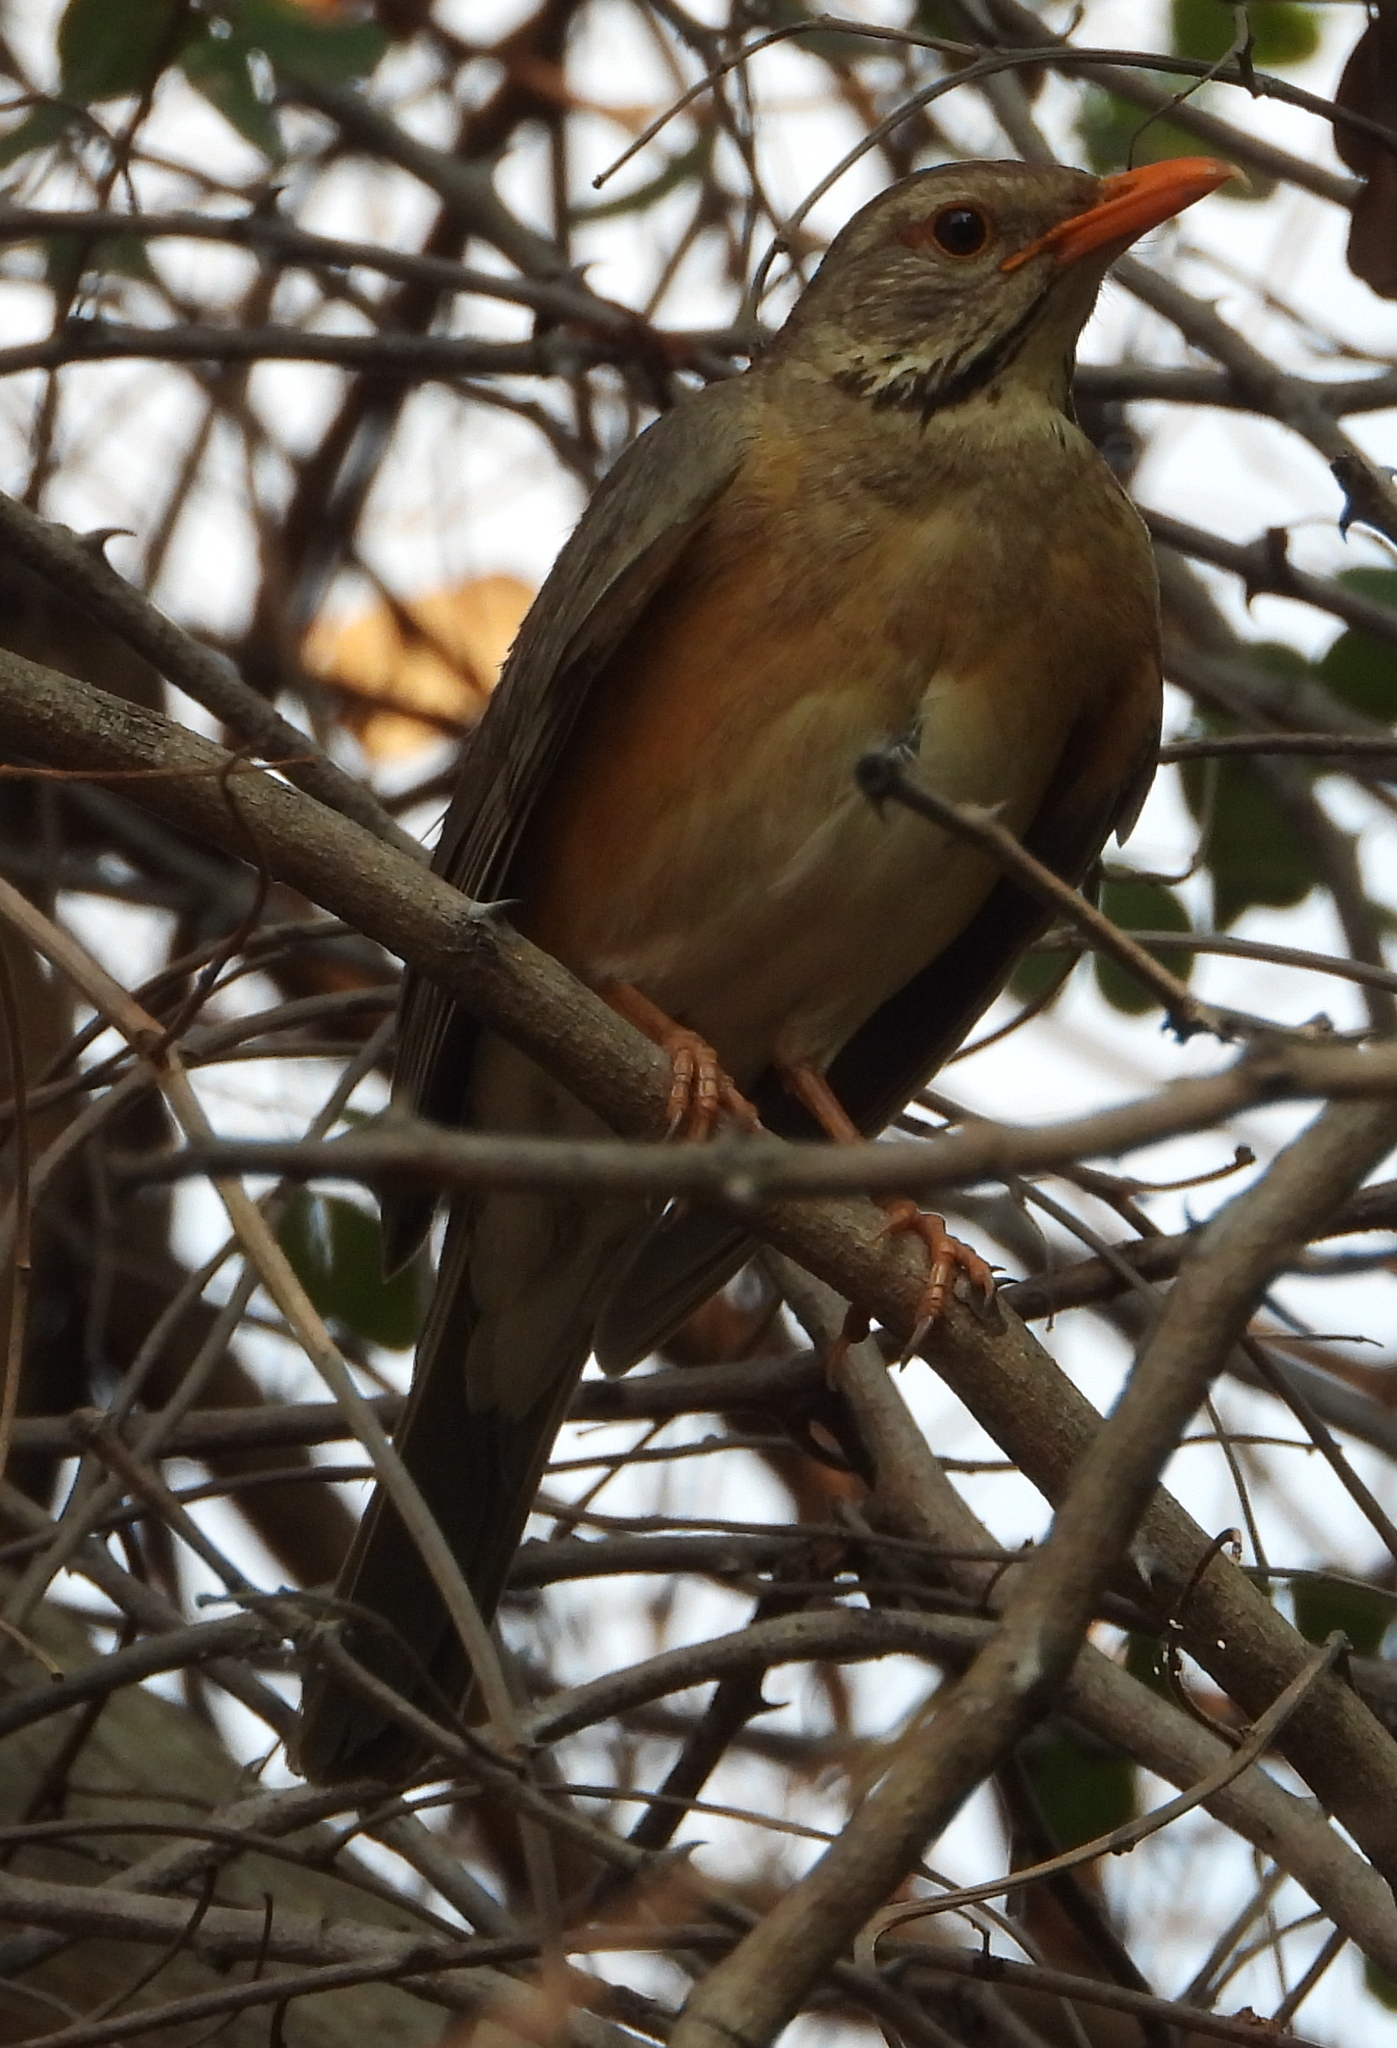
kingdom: Animalia
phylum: Chordata
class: Aves
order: Passeriformes
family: Turdidae
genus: Turdus
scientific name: Turdus libonyana
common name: Kurrichane thrush
